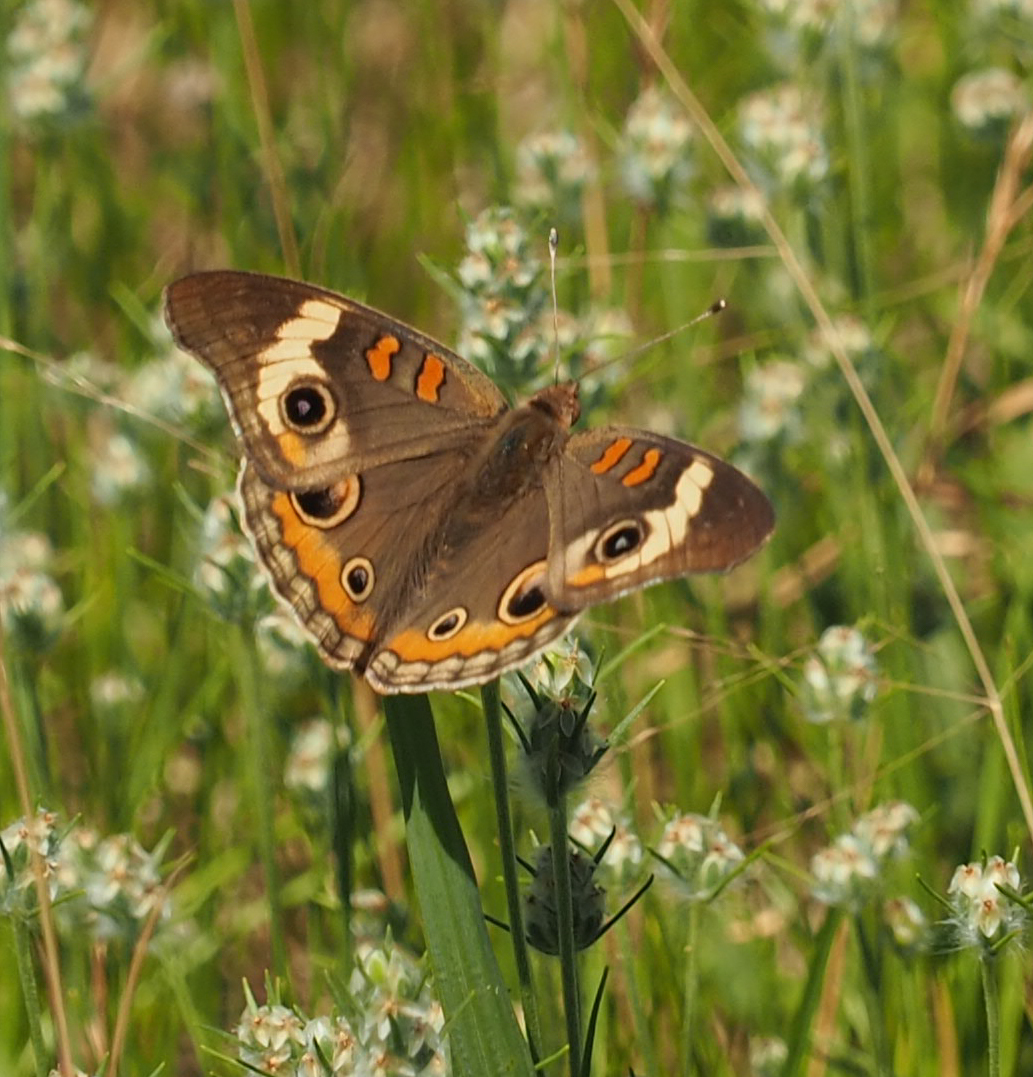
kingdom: Animalia
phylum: Arthropoda
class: Insecta
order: Lepidoptera
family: Nymphalidae
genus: Junonia
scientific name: Junonia coenia
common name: Common buckeye
